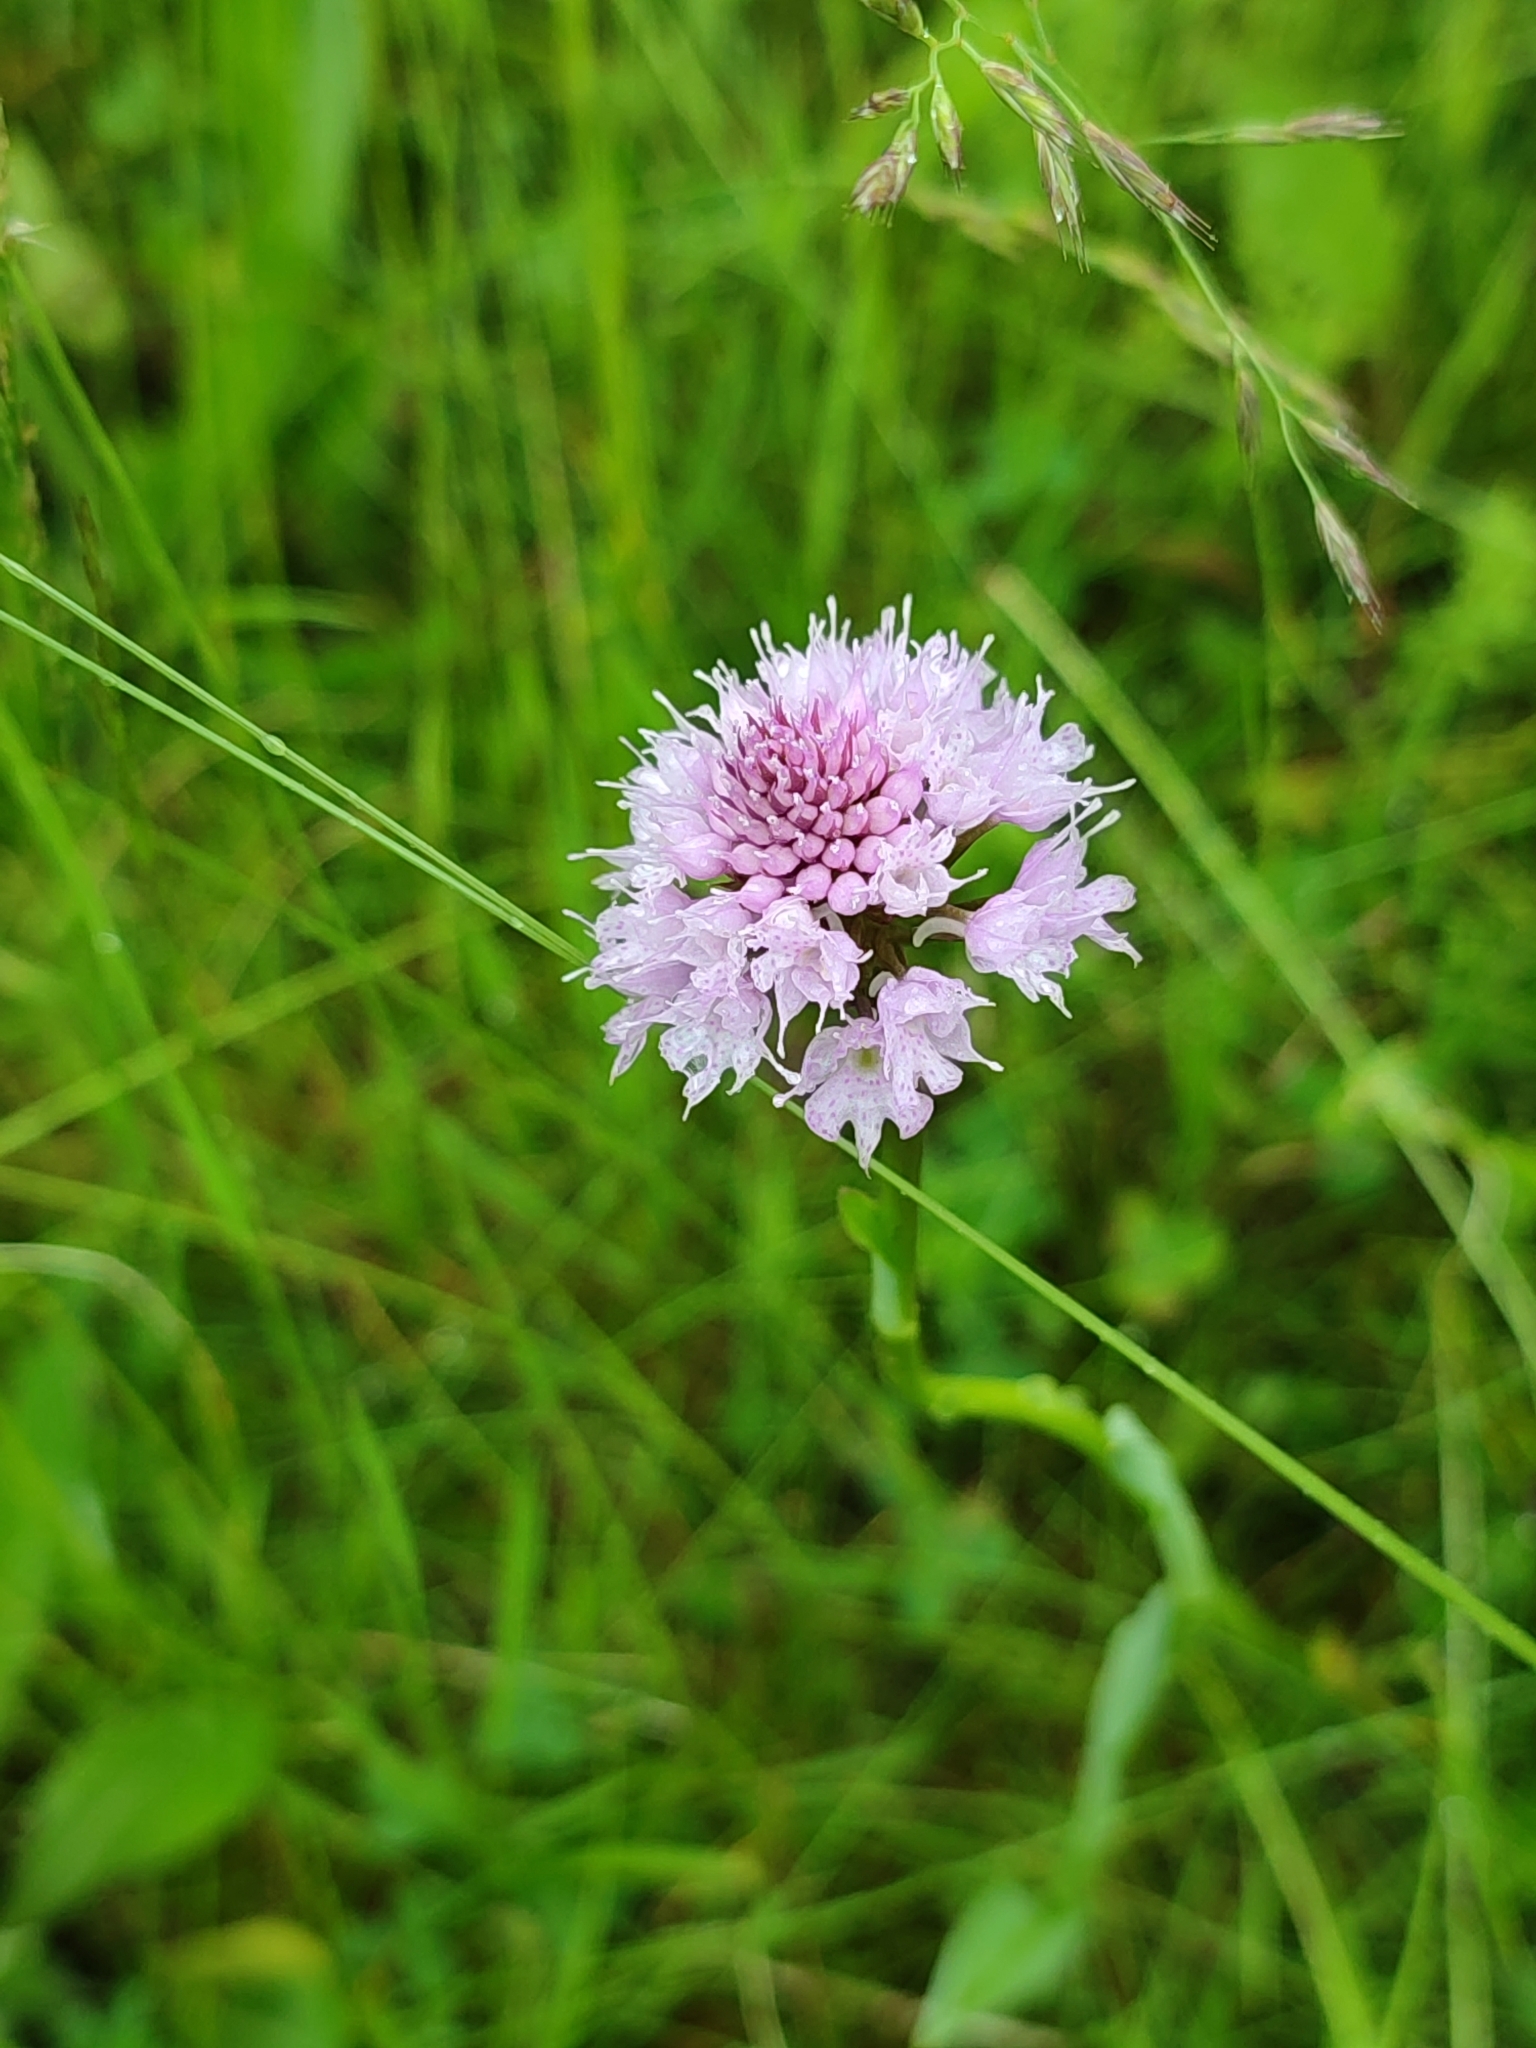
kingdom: Plantae
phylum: Tracheophyta
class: Liliopsida
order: Asparagales
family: Orchidaceae
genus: Traunsteinera
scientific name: Traunsteinera globosa
